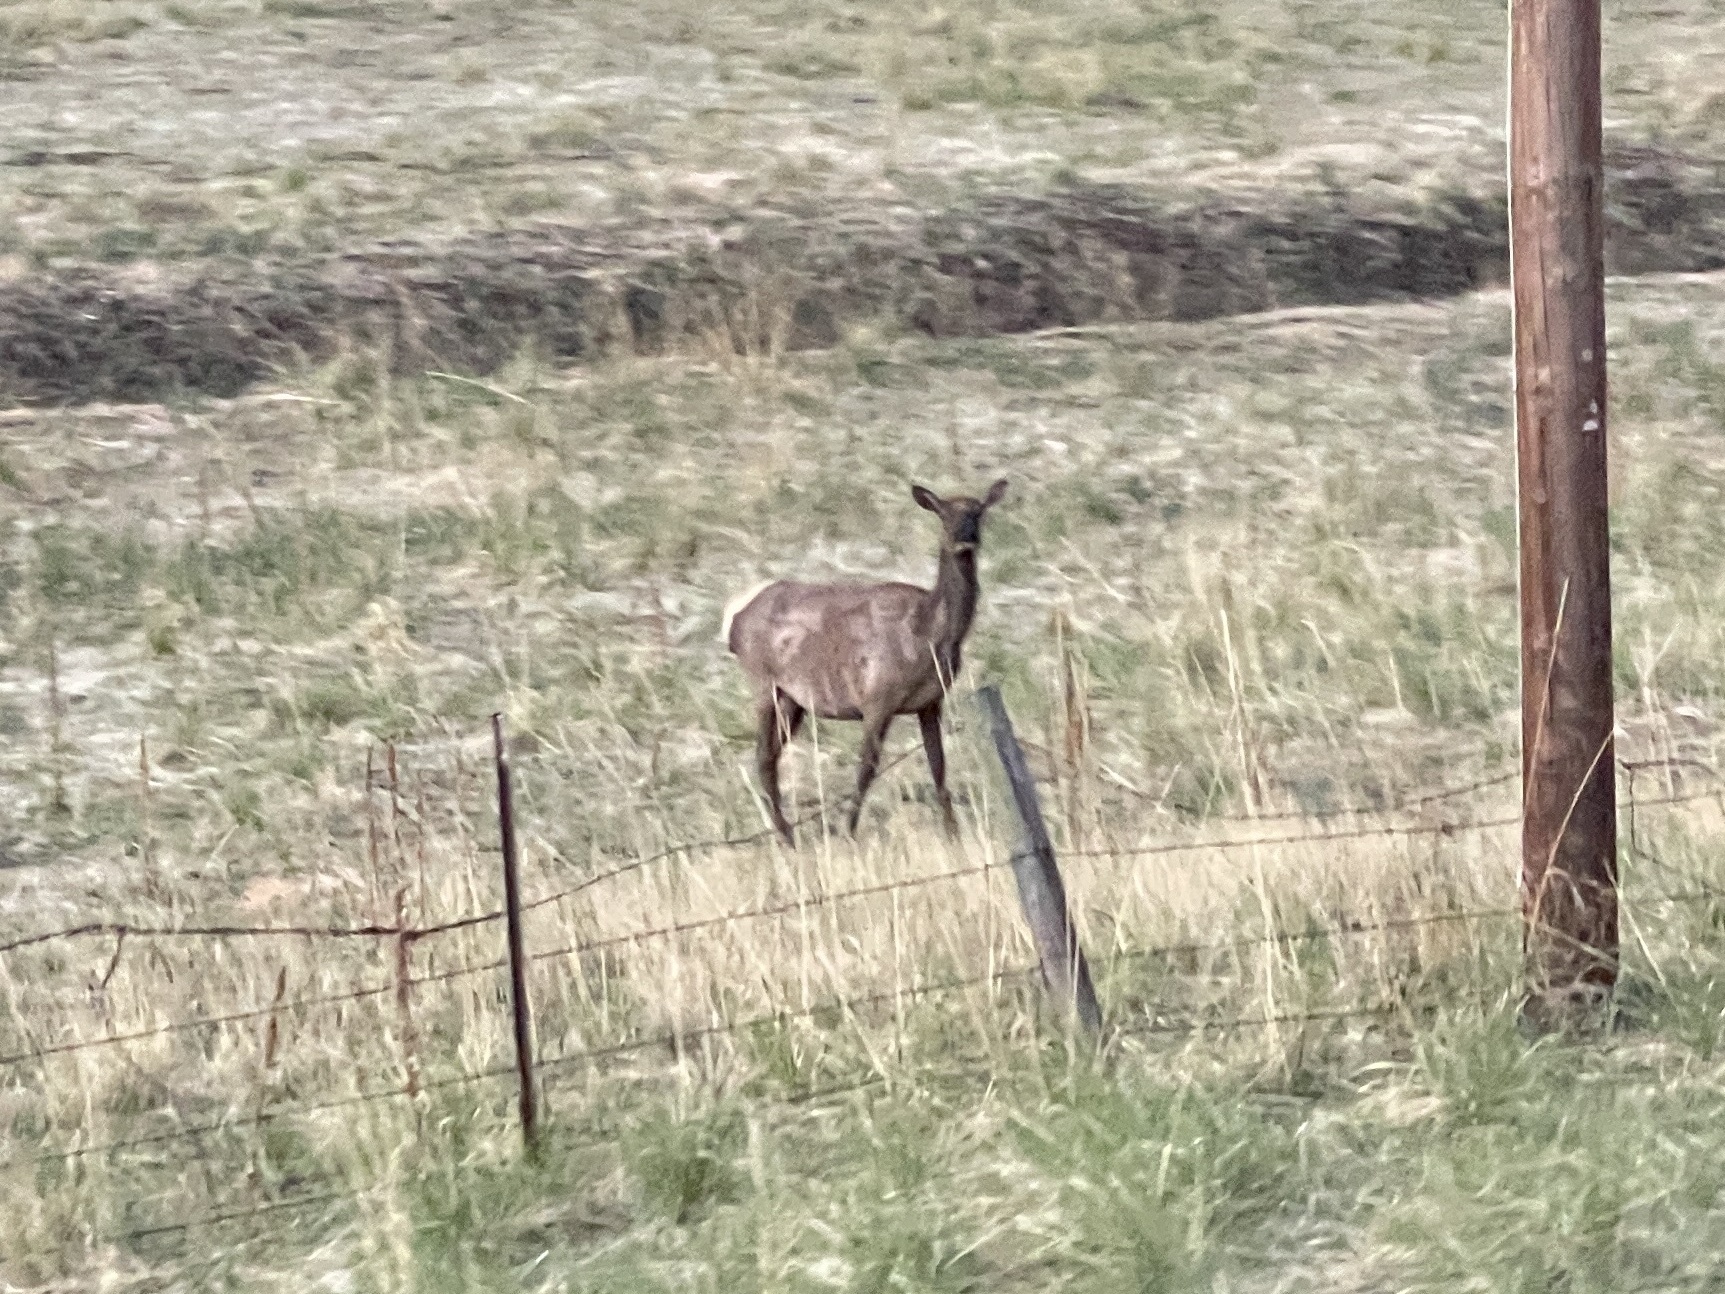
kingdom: Animalia
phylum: Chordata
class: Mammalia
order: Artiodactyla
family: Cervidae
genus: Cervus
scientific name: Cervus elaphus
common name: Red deer
